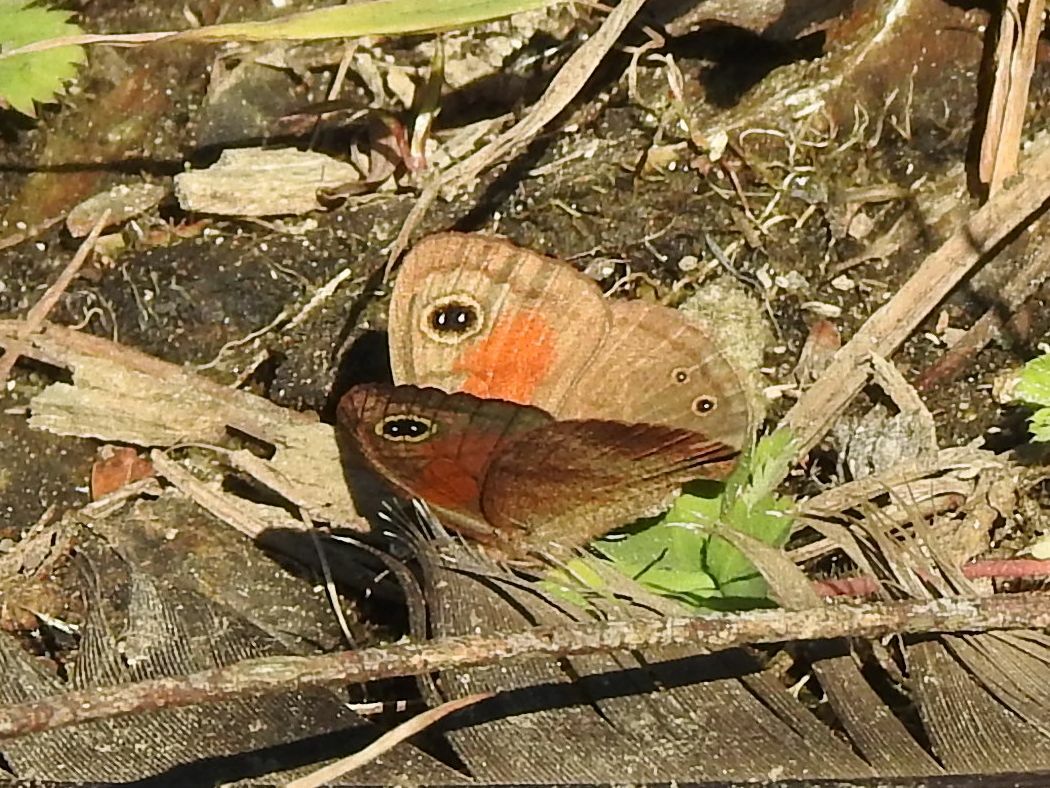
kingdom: Animalia
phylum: Arthropoda
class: Insecta
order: Lepidoptera
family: Nymphalidae
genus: Cassionympha
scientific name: Cassionympha cassius
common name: Rainforest brown
